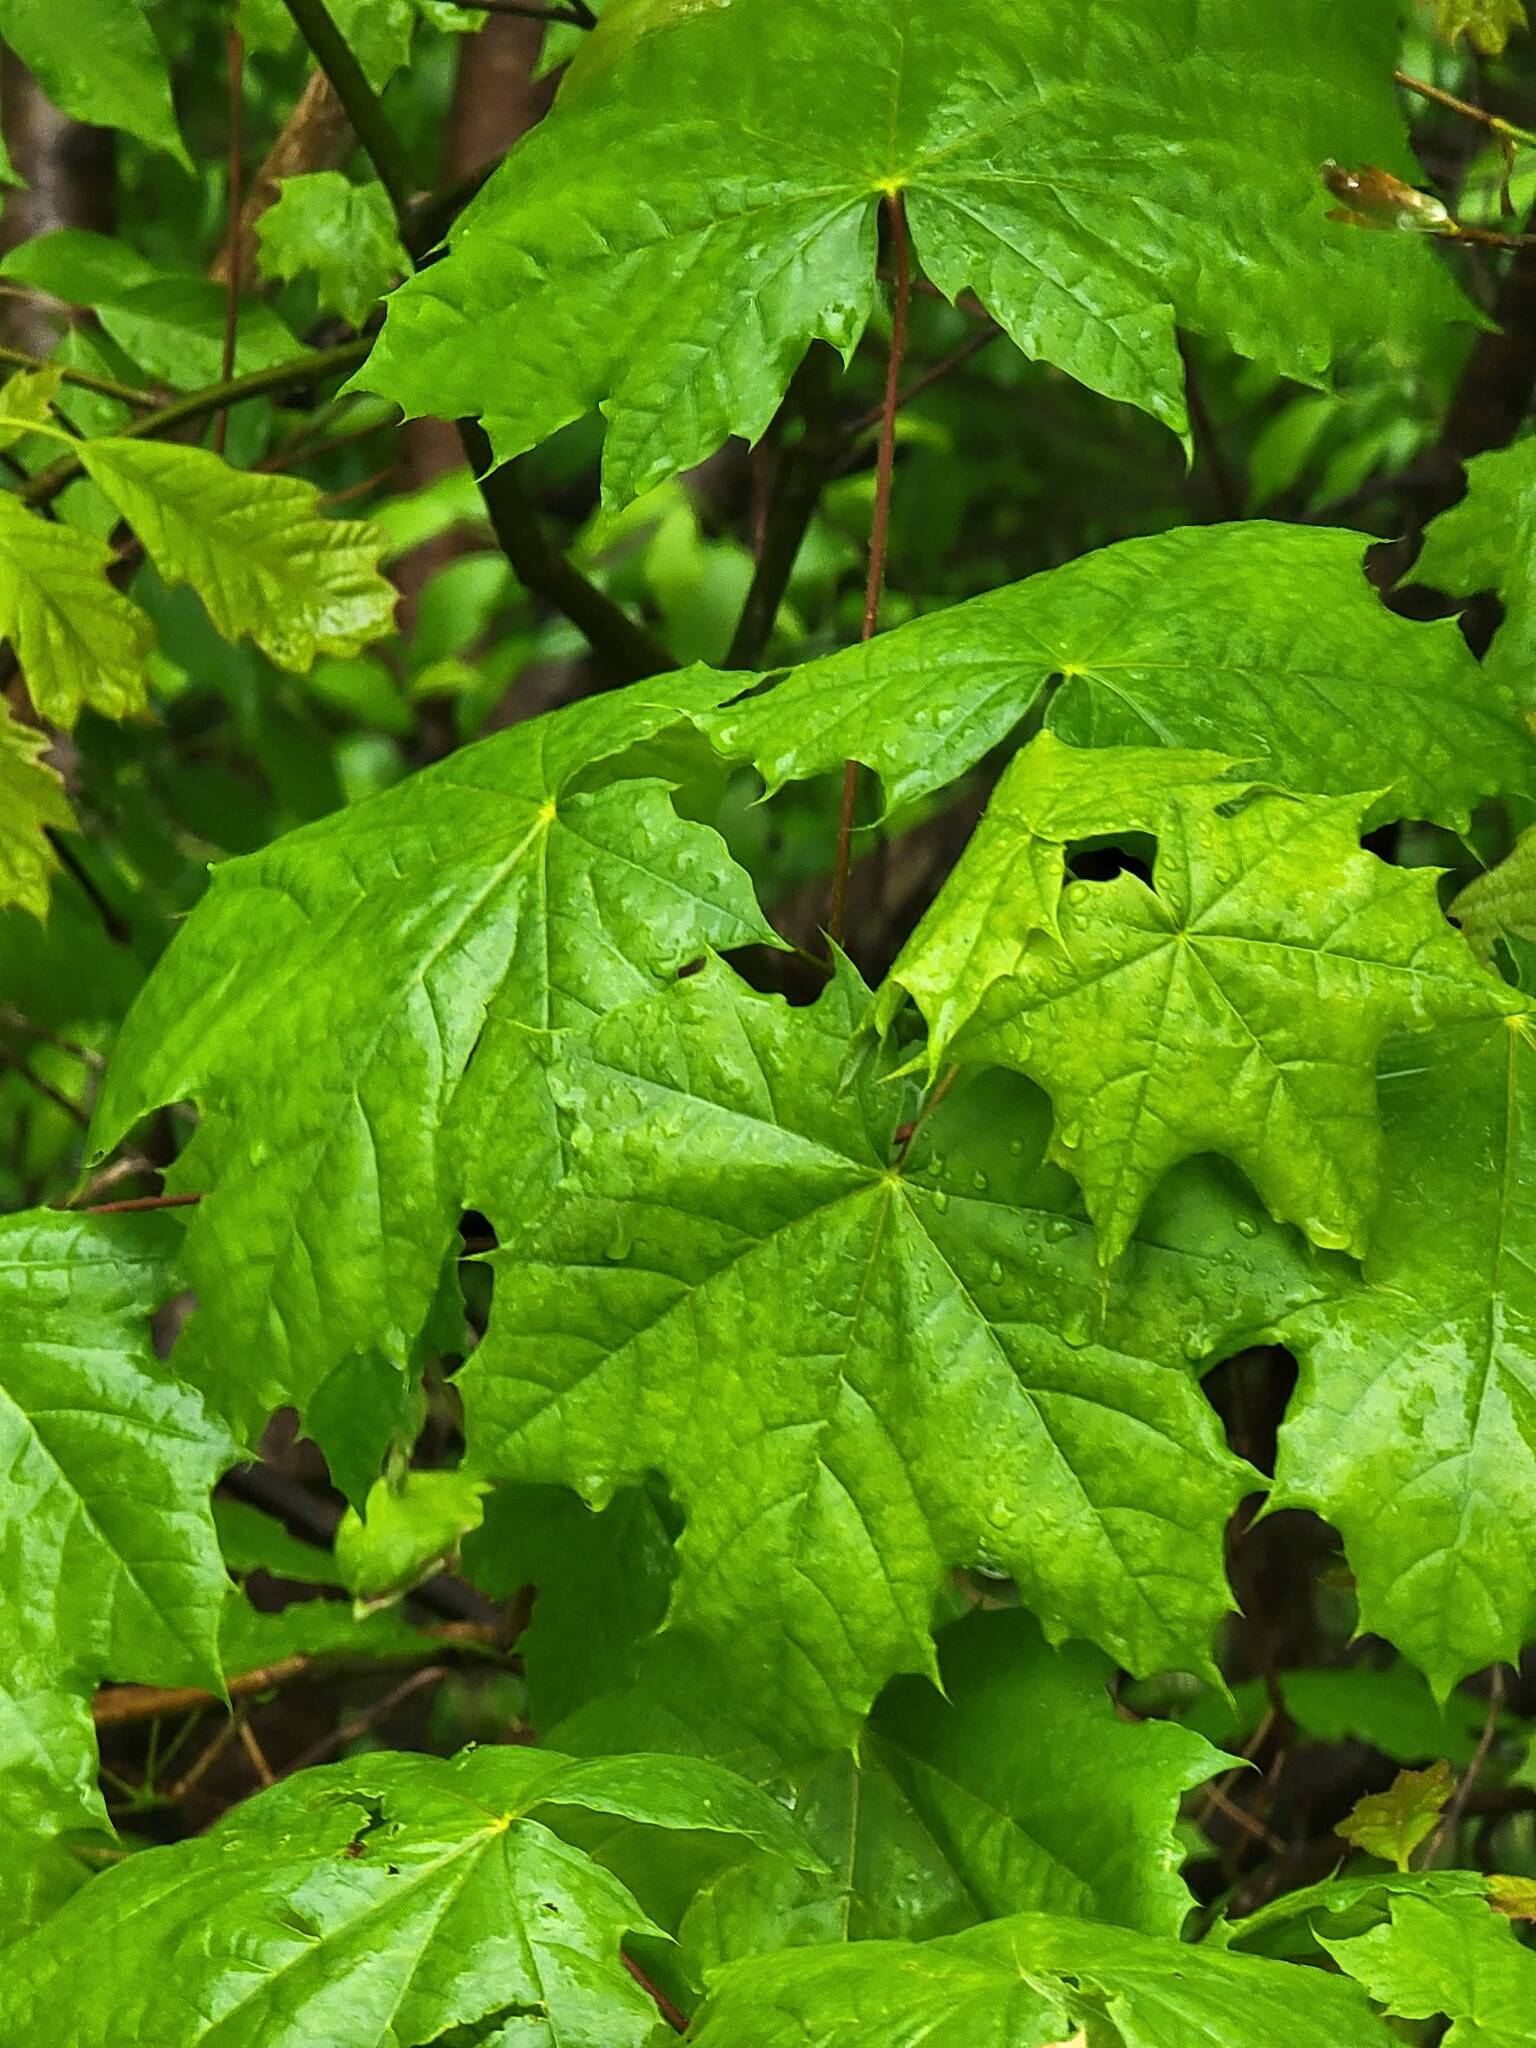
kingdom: Plantae
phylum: Tracheophyta
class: Magnoliopsida
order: Sapindales
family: Sapindaceae
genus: Acer
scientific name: Acer platanoides
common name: Norway maple
